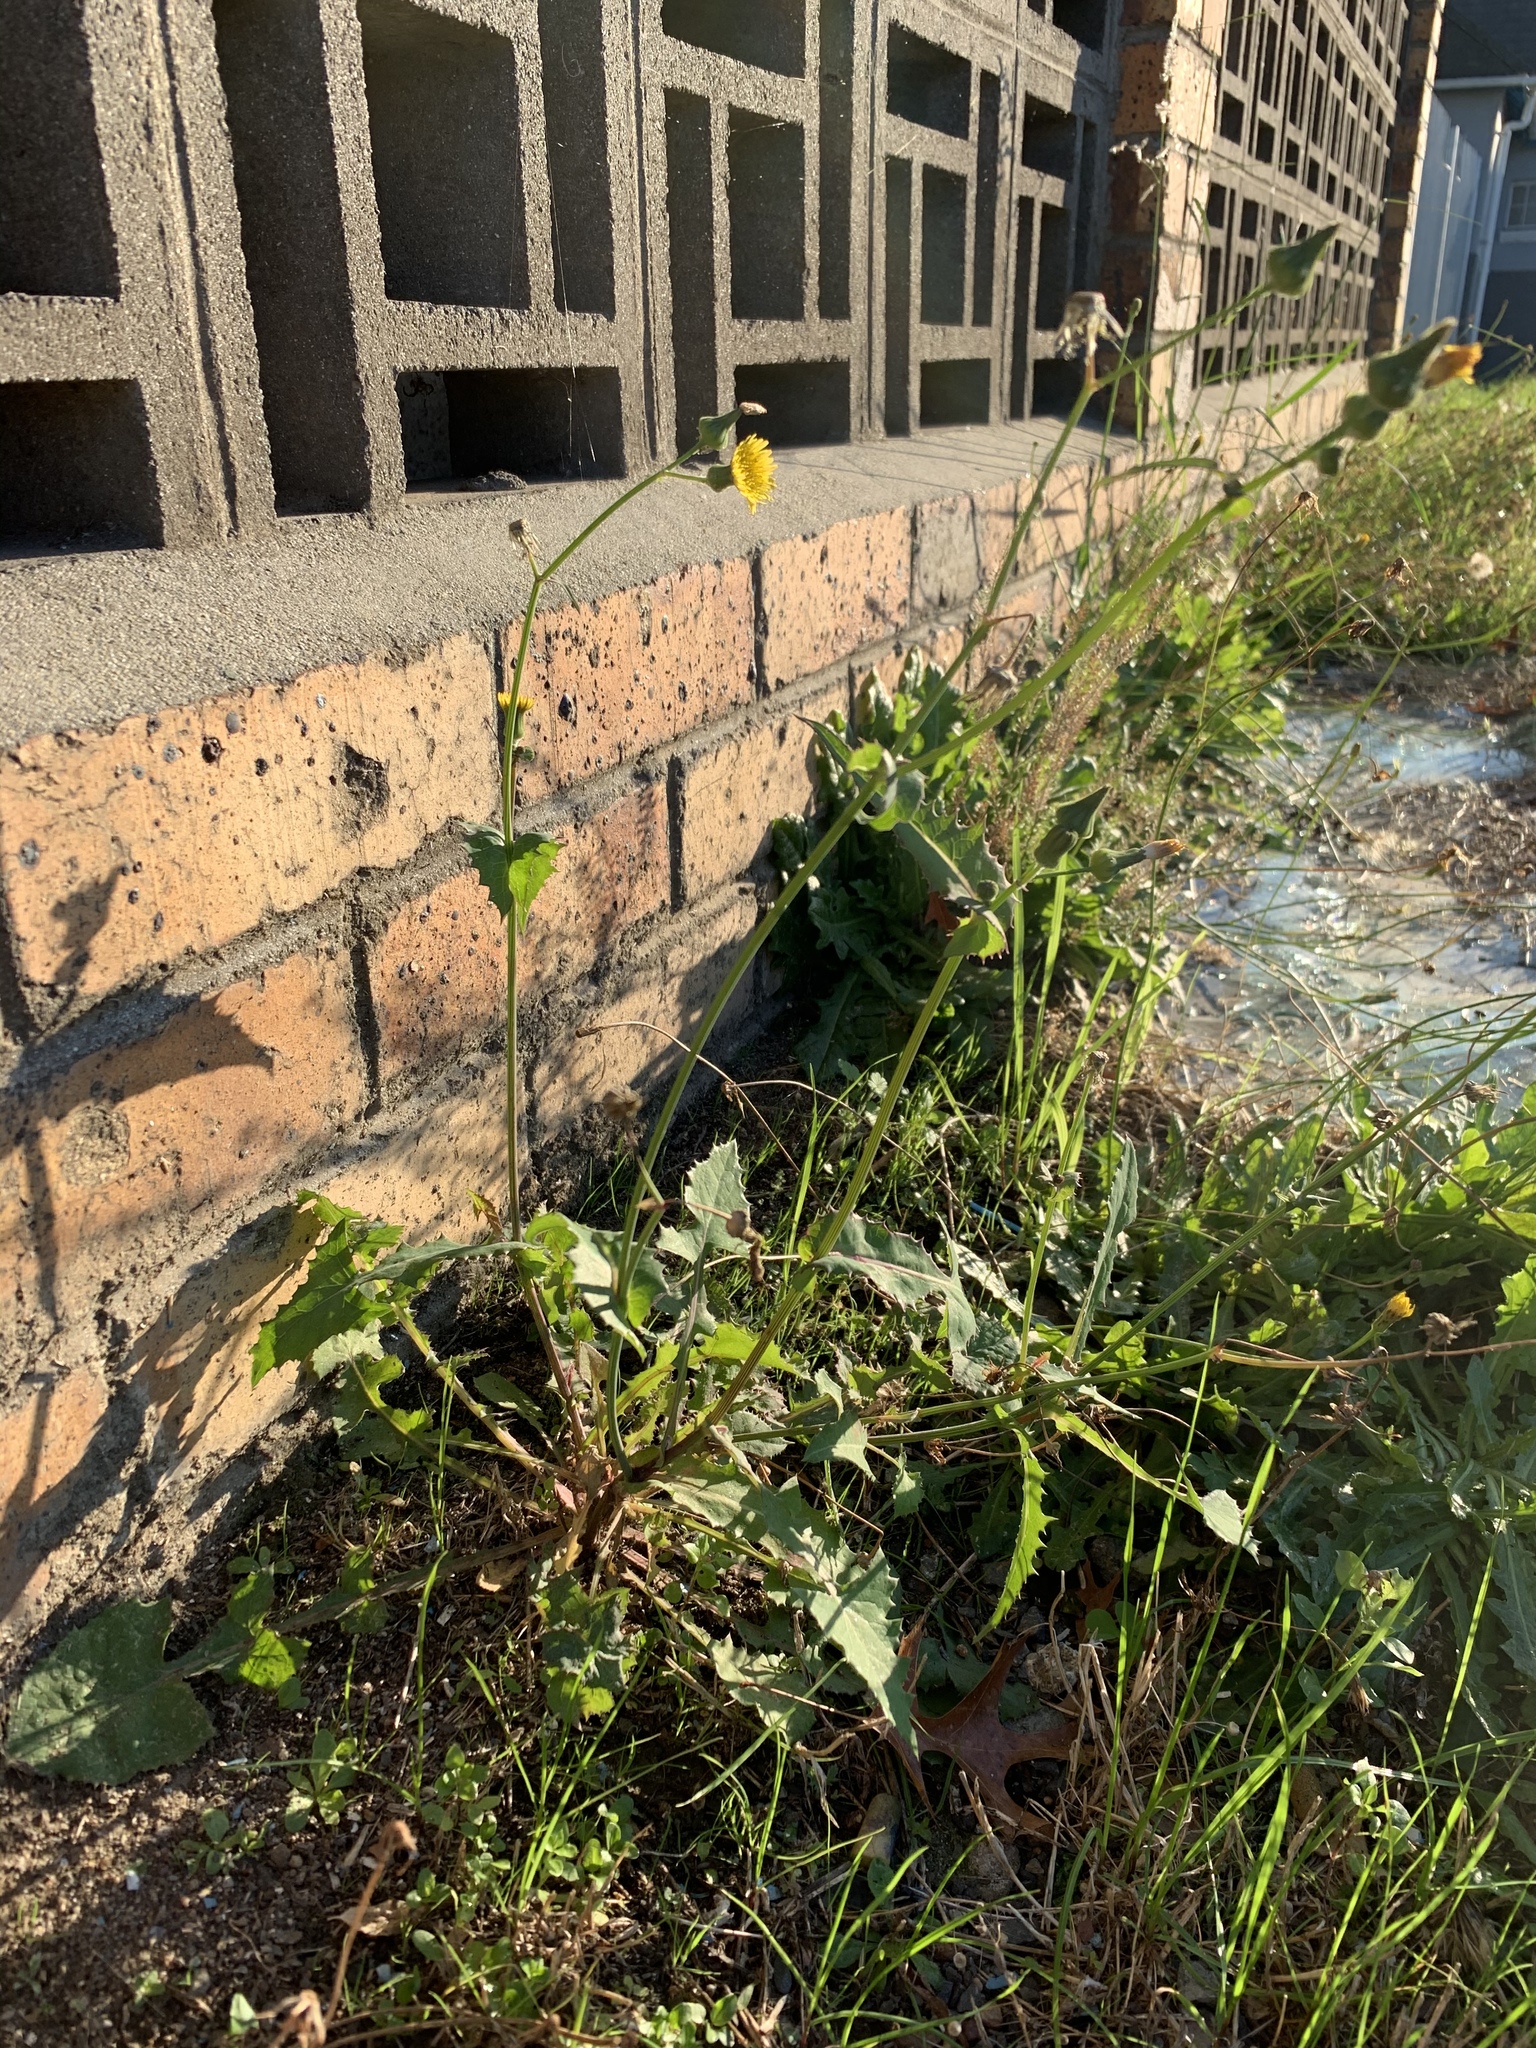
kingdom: Plantae
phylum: Tracheophyta
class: Magnoliopsida
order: Asterales
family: Asteraceae
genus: Sonchus
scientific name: Sonchus oleraceus
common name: Common sowthistle
